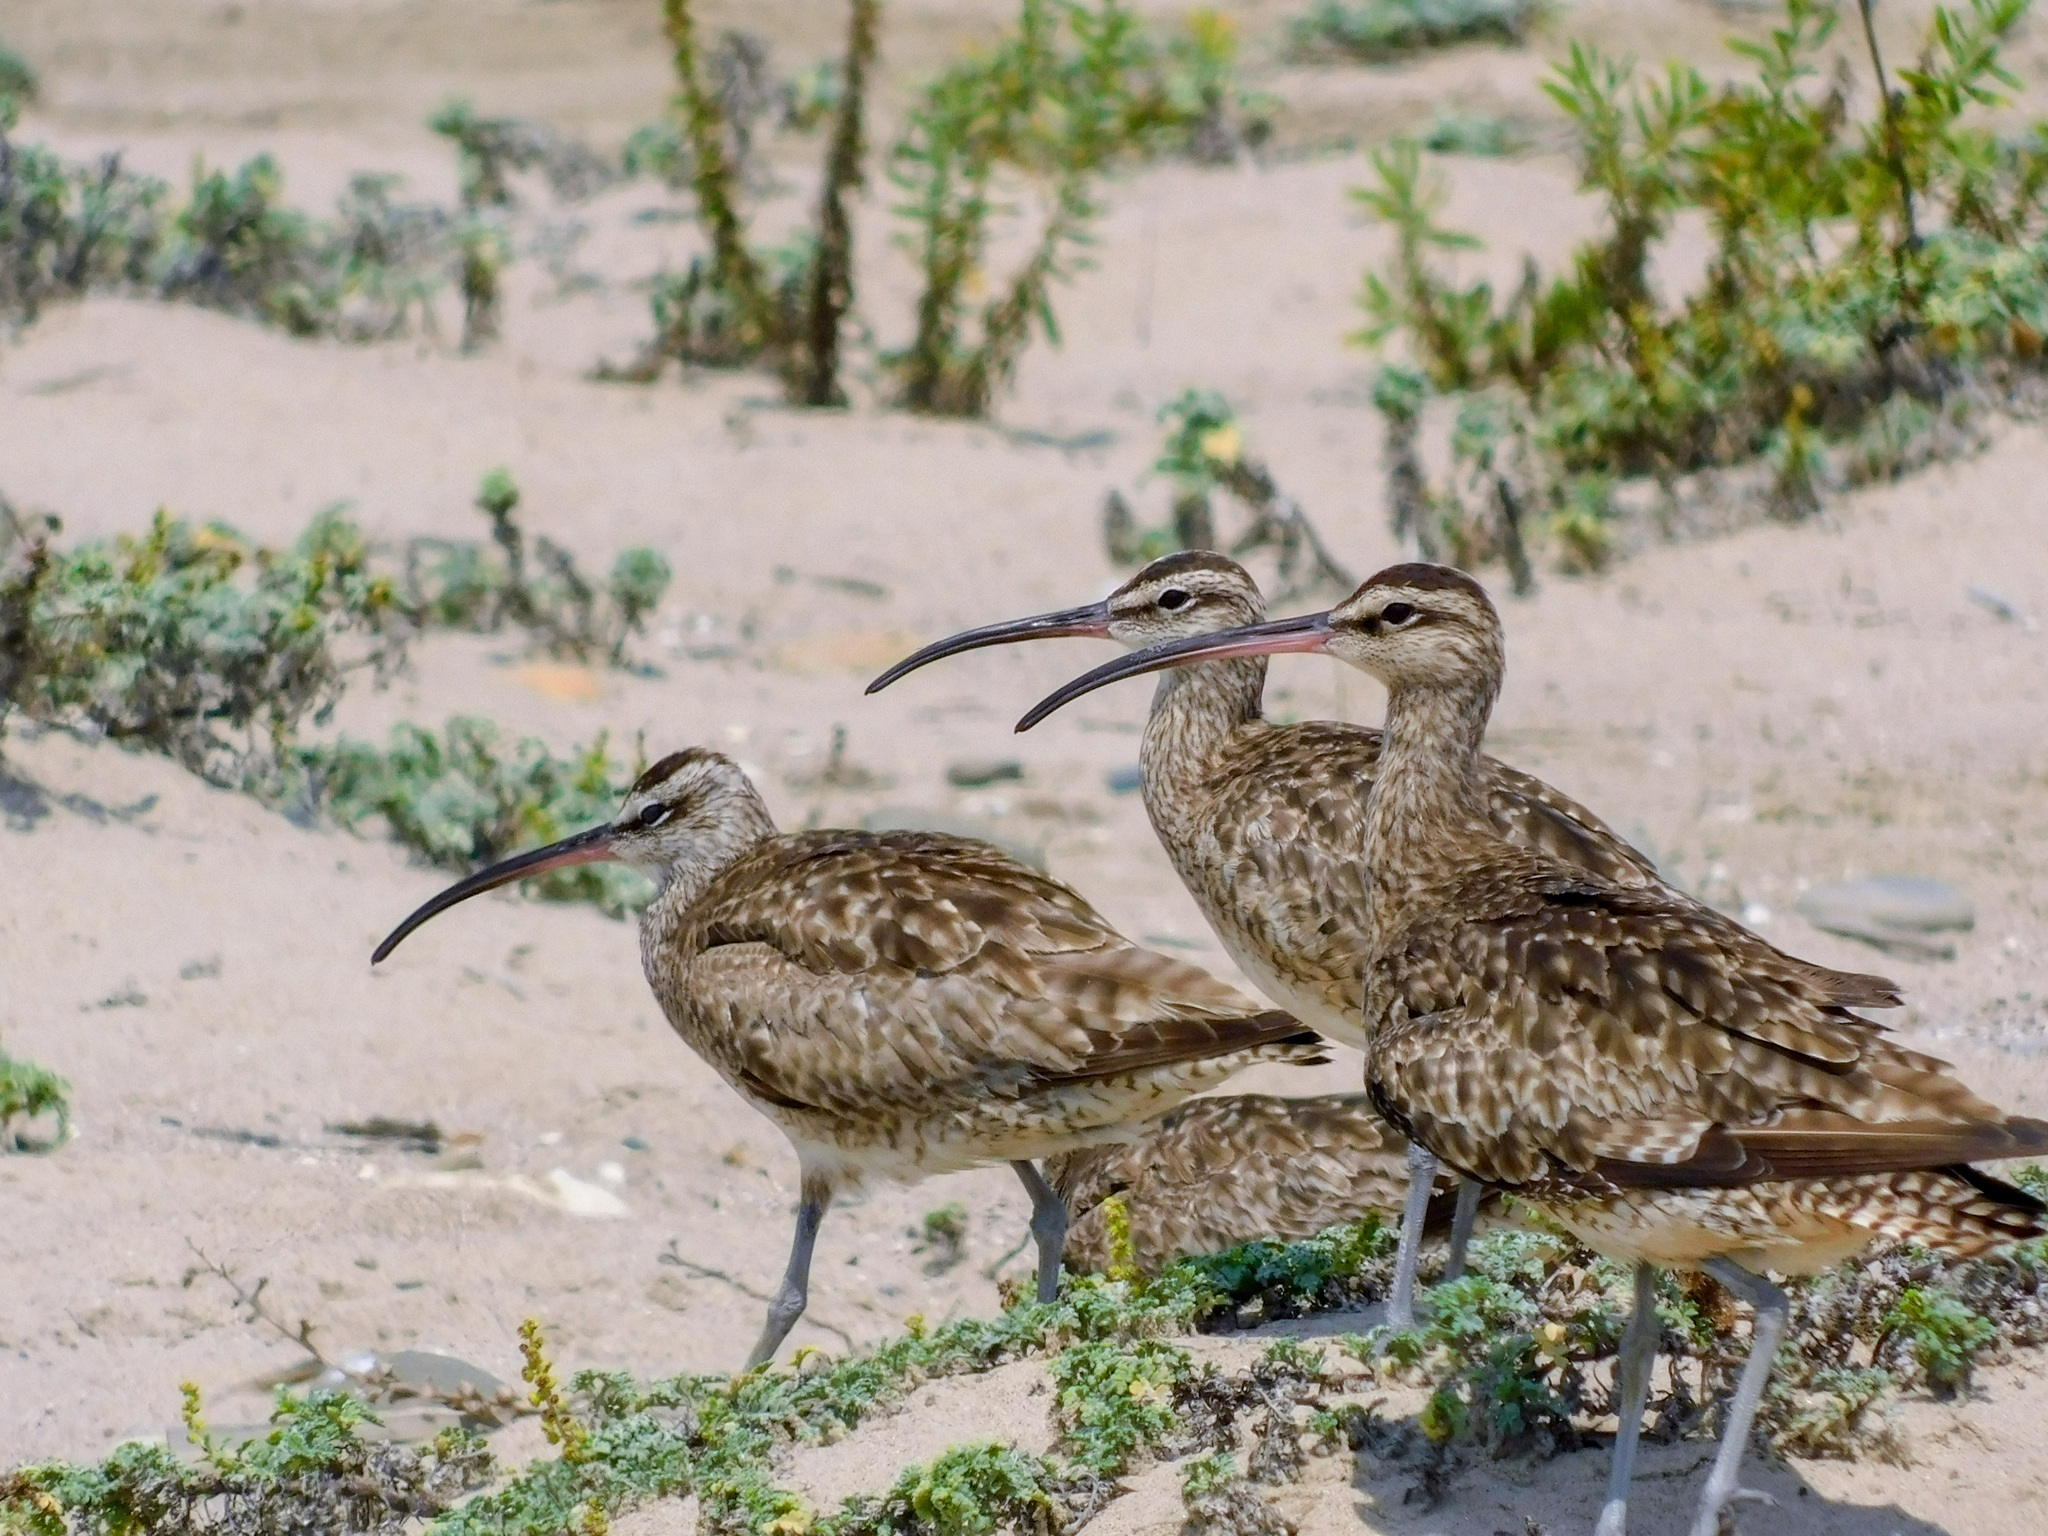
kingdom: Animalia
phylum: Chordata
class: Aves
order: Charadriiformes
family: Scolopacidae
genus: Numenius
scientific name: Numenius phaeopus
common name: Whimbrel
